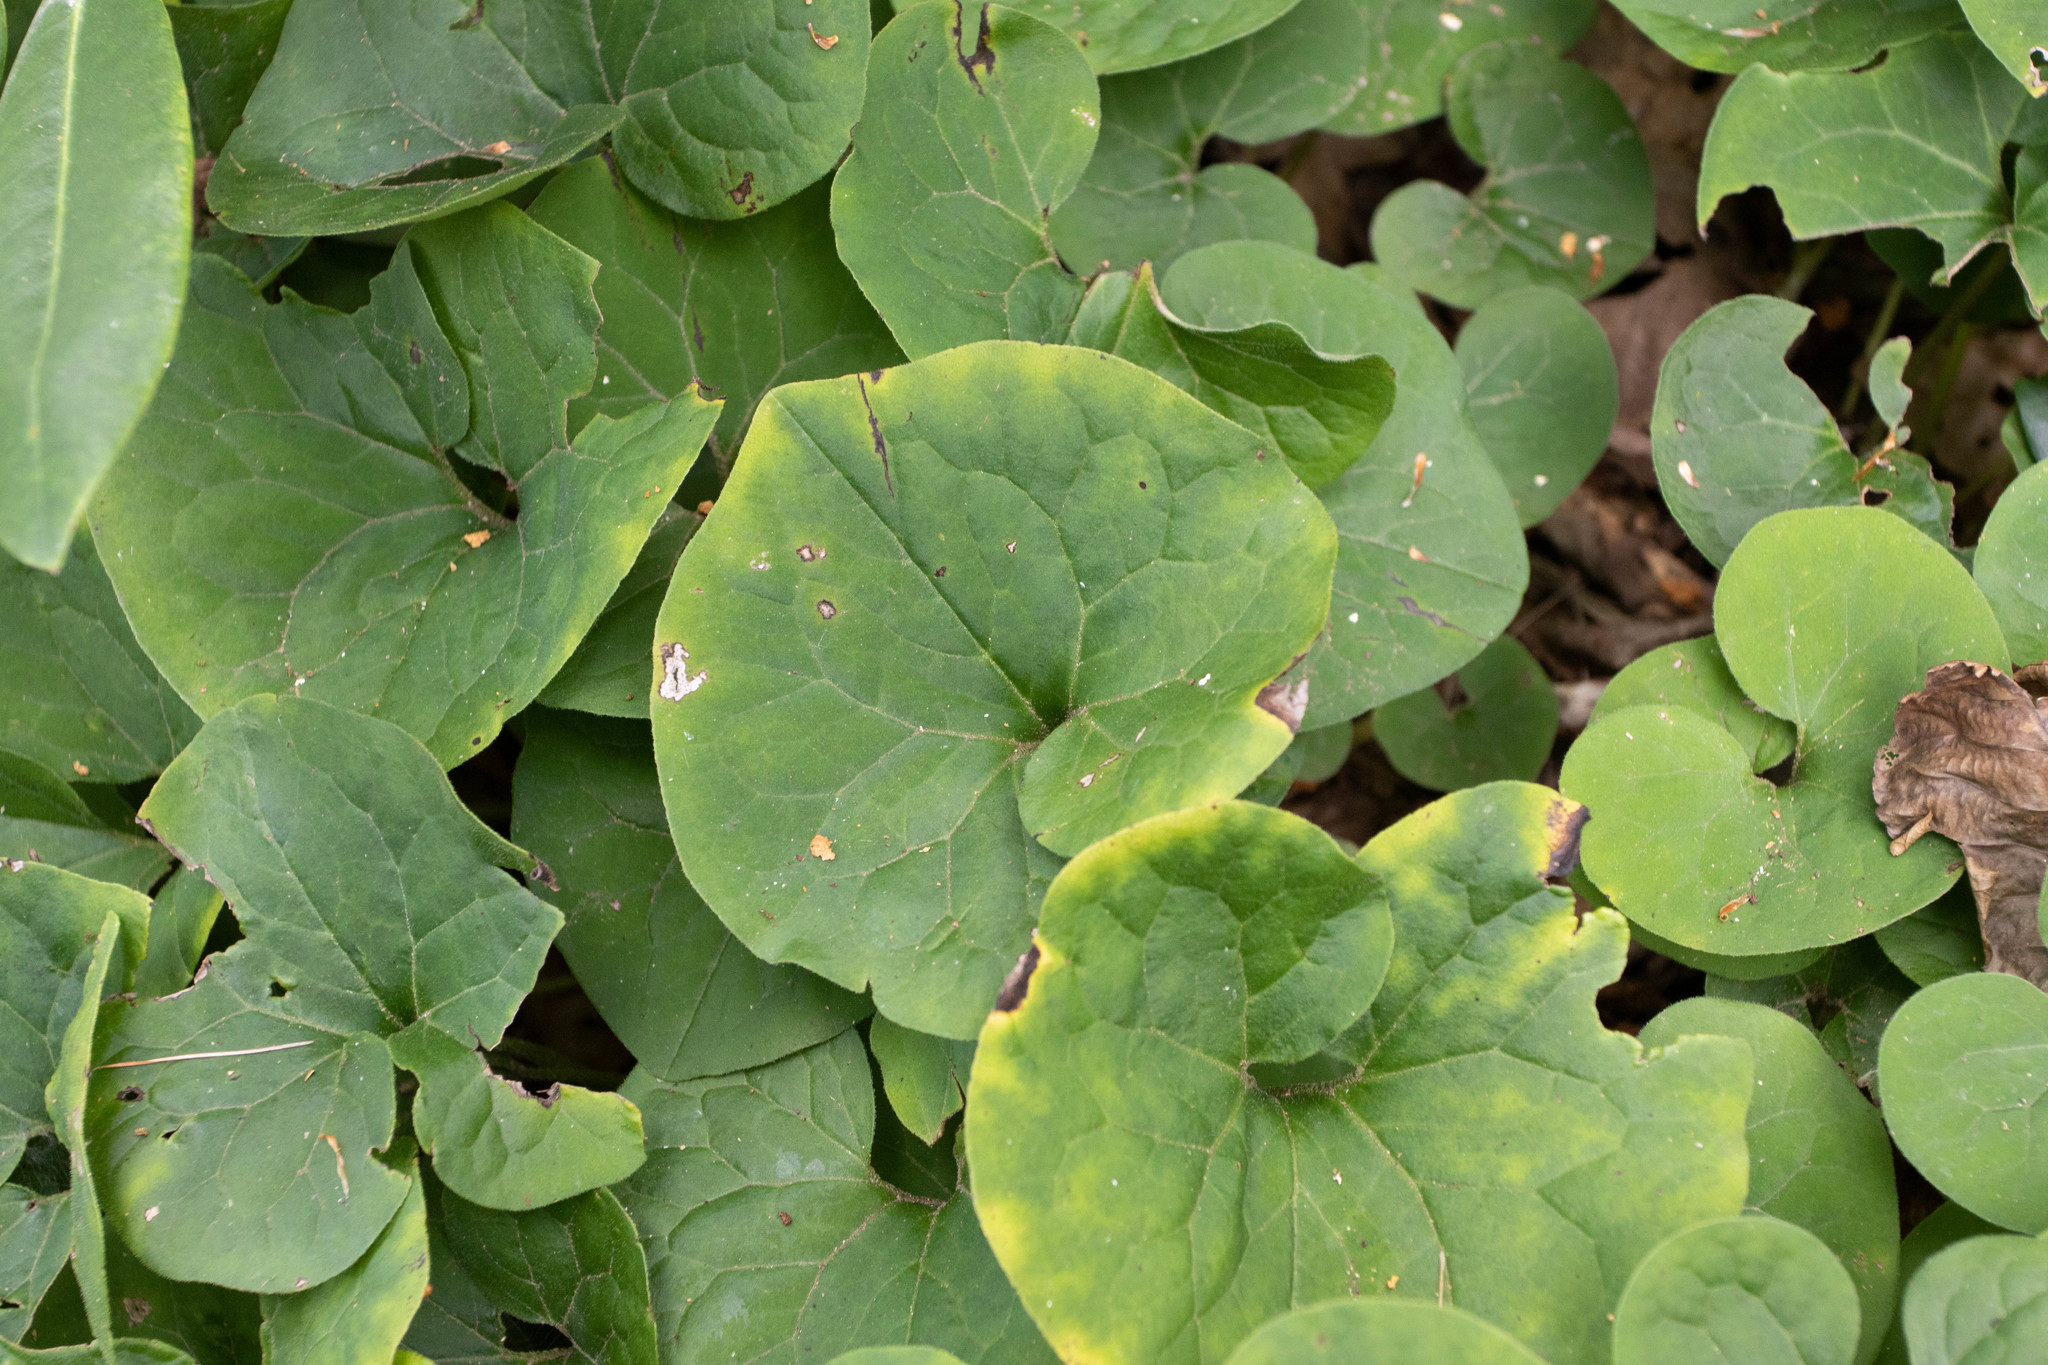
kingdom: Plantae
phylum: Tracheophyta
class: Magnoliopsida
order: Piperales
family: Aristolochiaceae
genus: Asarum
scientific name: Asarum canadense
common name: Wild ginger
